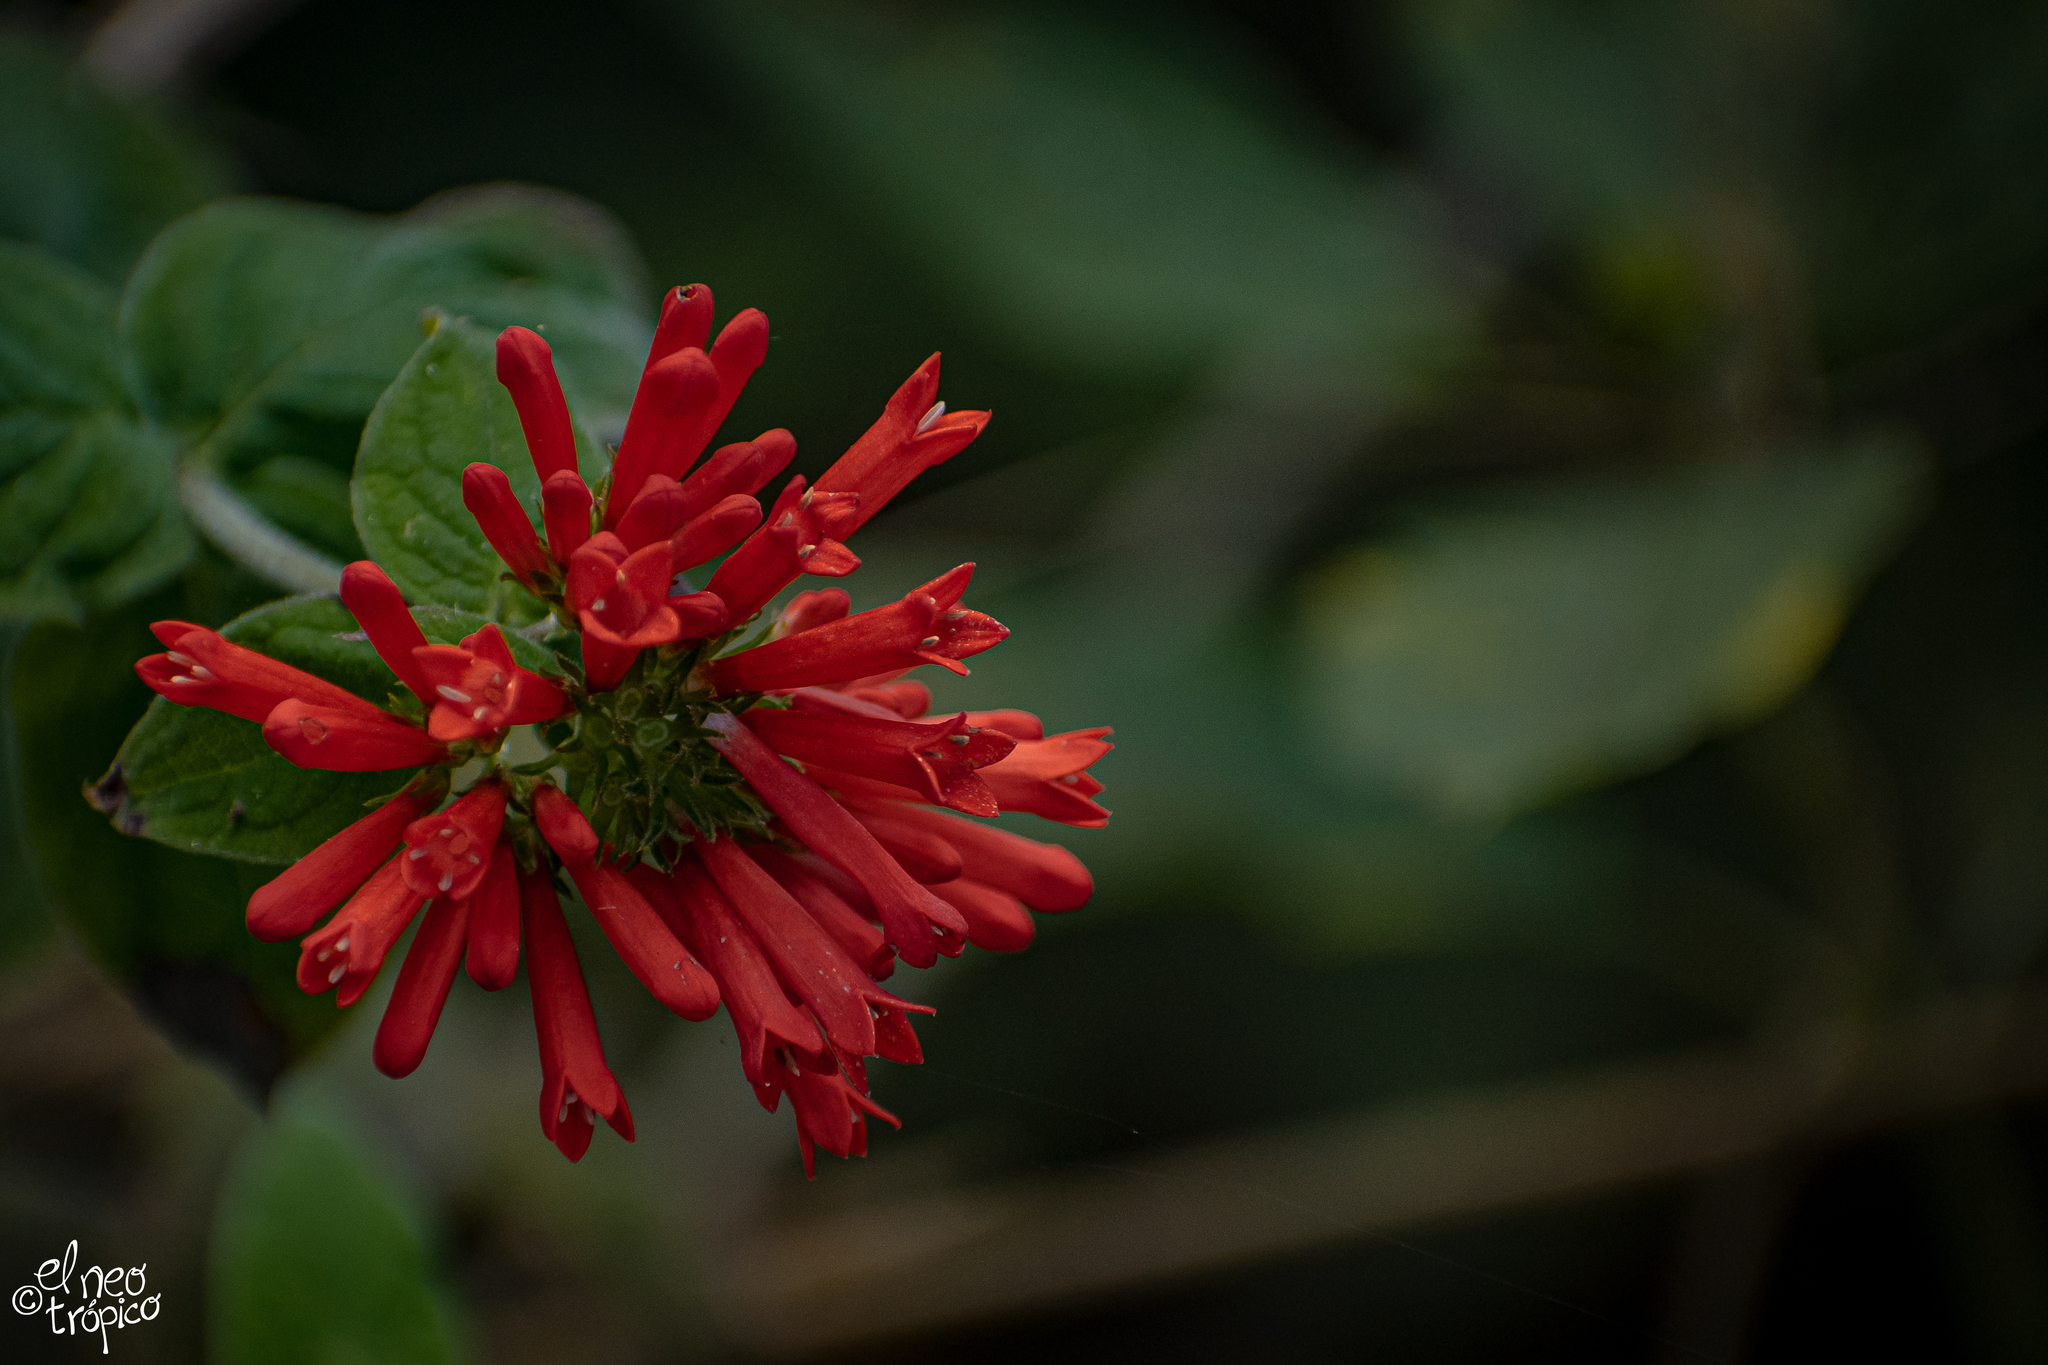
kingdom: Plantae
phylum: Tracheophyta
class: Magnoliopsida
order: Gentianales
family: Rubiaceae
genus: Bouvardia
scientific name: Bouvardia ternifolia
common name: Scarlet bouvardia
